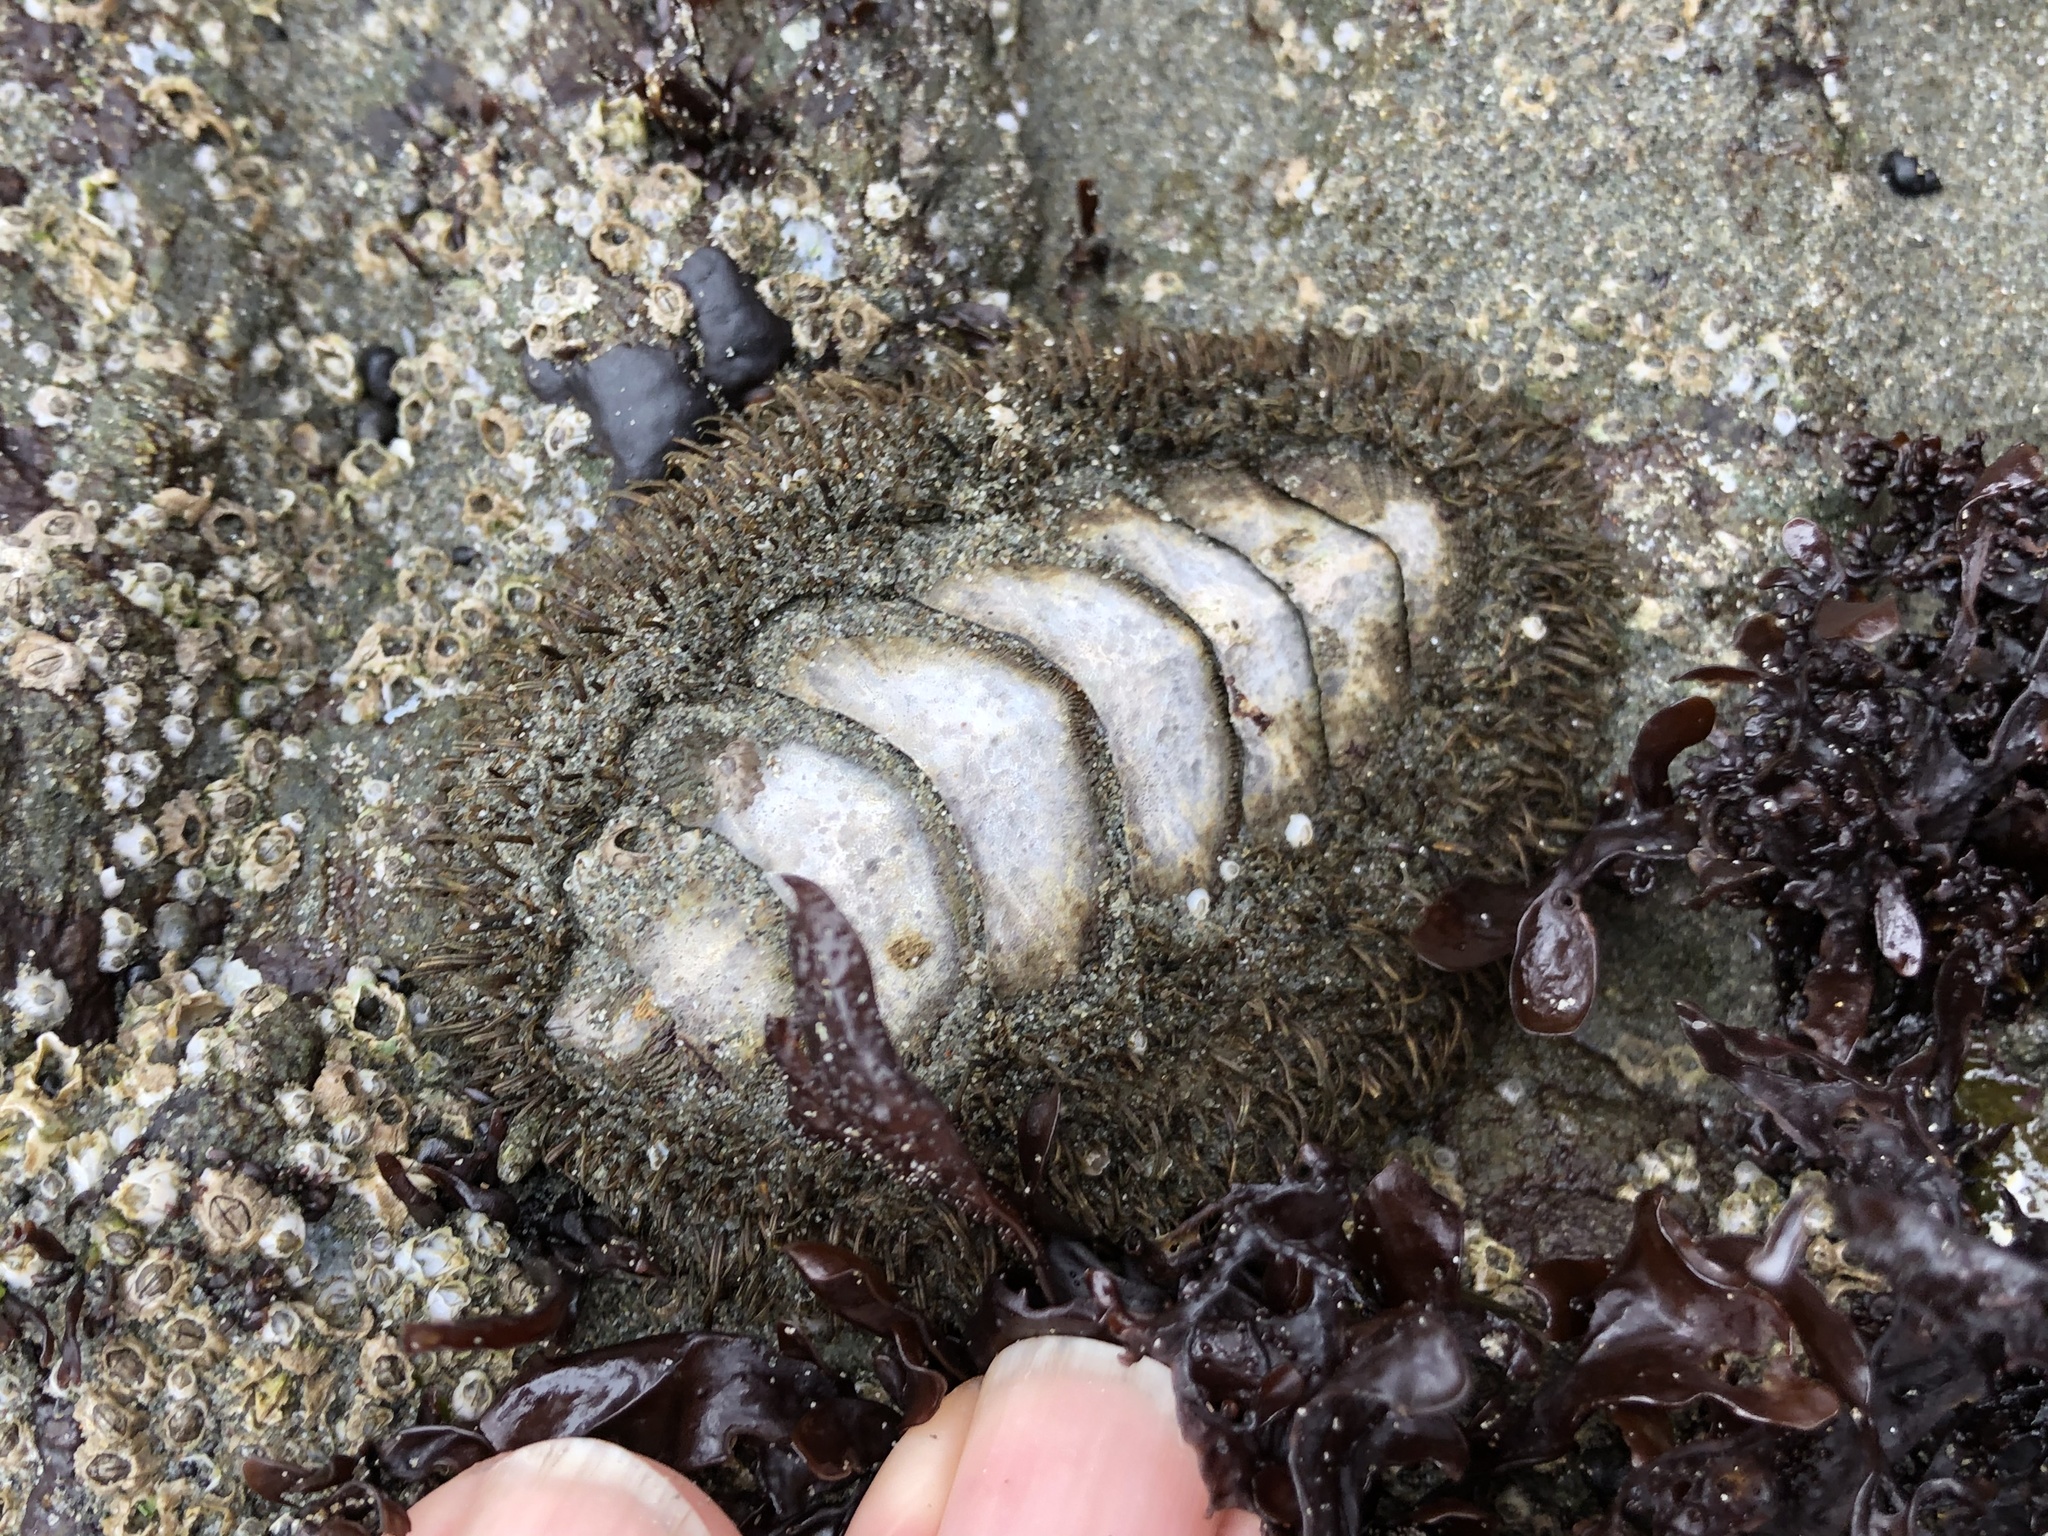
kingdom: Animalia
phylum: Mollusca
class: Polyplacophora
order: Chitonida
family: Mopaliidae
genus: Mopalia
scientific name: Mopalia muscosa
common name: Mossy chiton
